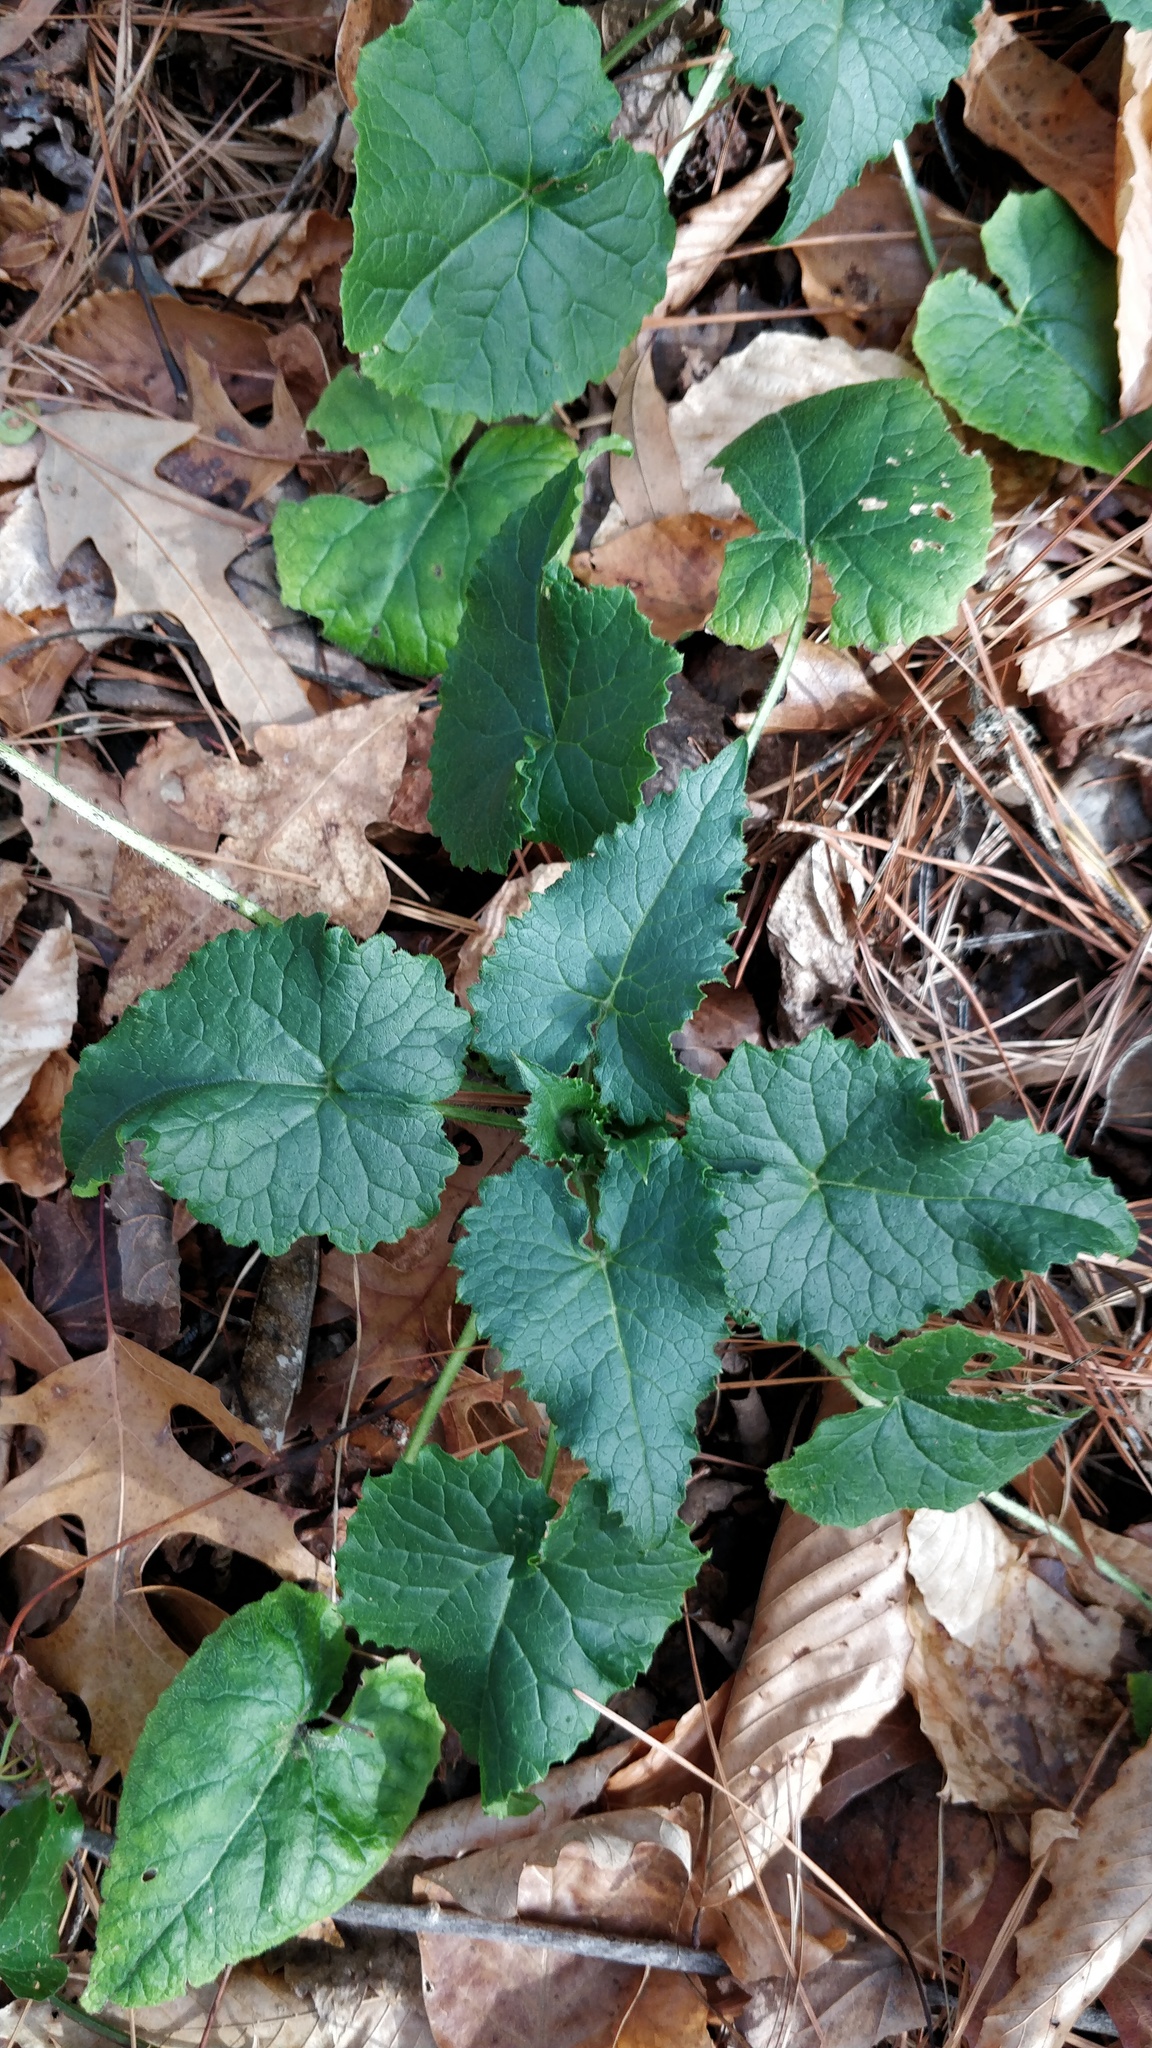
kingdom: Plantae
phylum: Tracheophyta
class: Magnoliopsida
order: Brassicales
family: Brassicaceae
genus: Lunaria
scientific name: Lunaria annua
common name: Honesty
